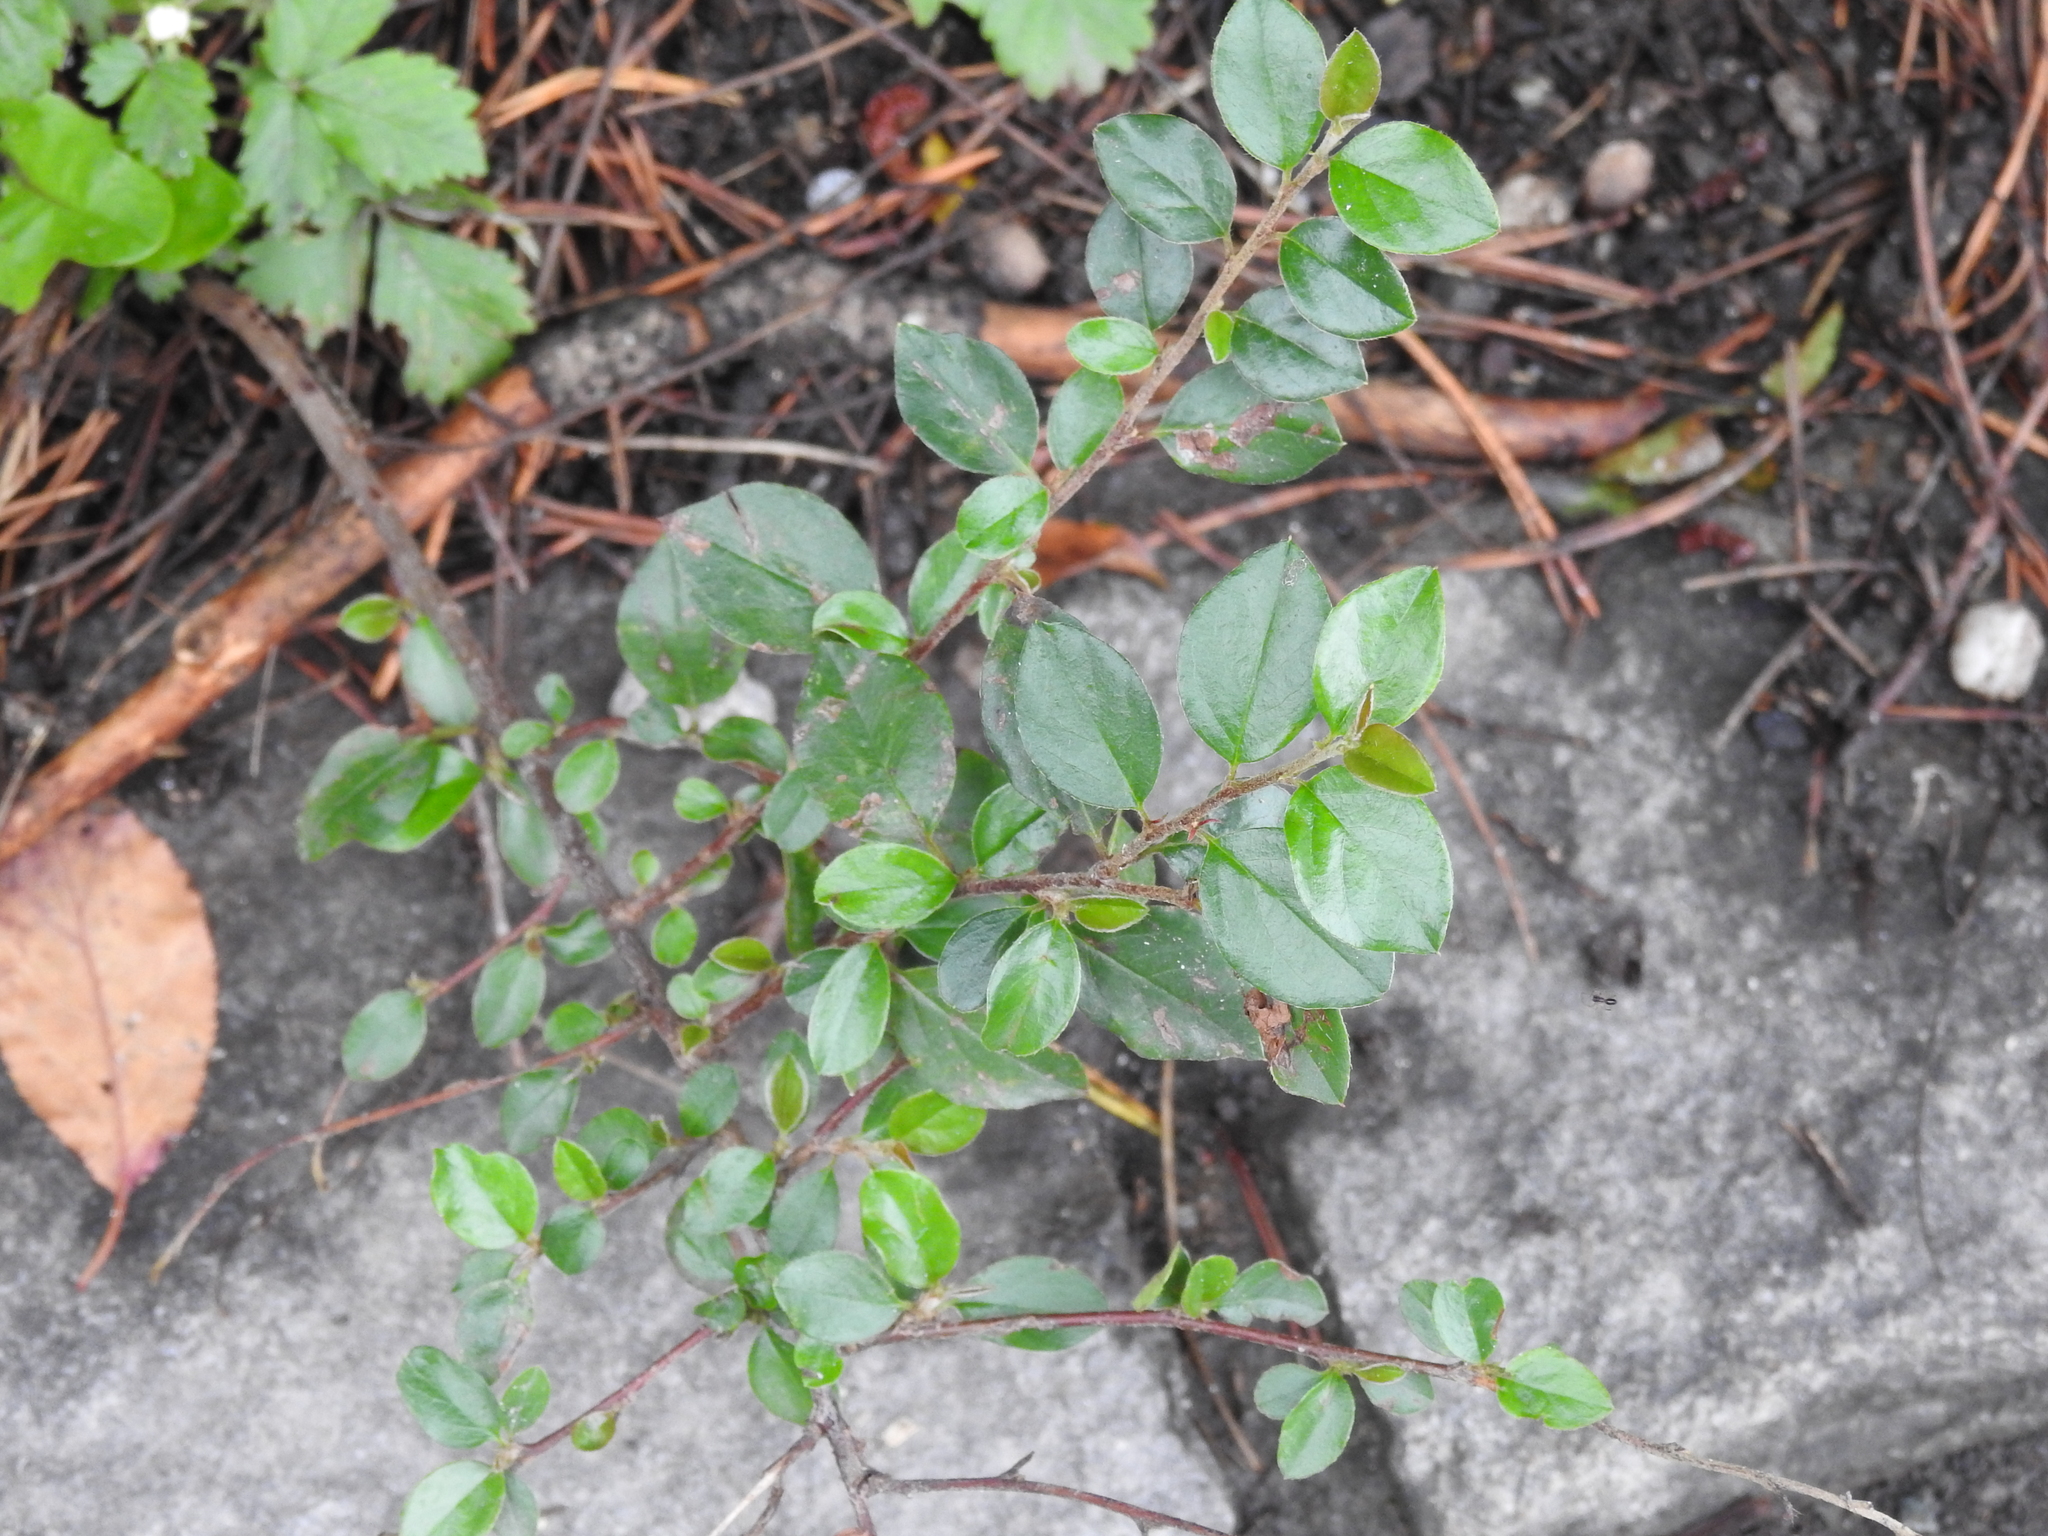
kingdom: Plantae
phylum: Tracheophyta
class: Magnoliopsida
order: Rosales
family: Rosaceae
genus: Cotoneaster
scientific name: Cotoneaster divaricatus
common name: Spreading cotoneaster
